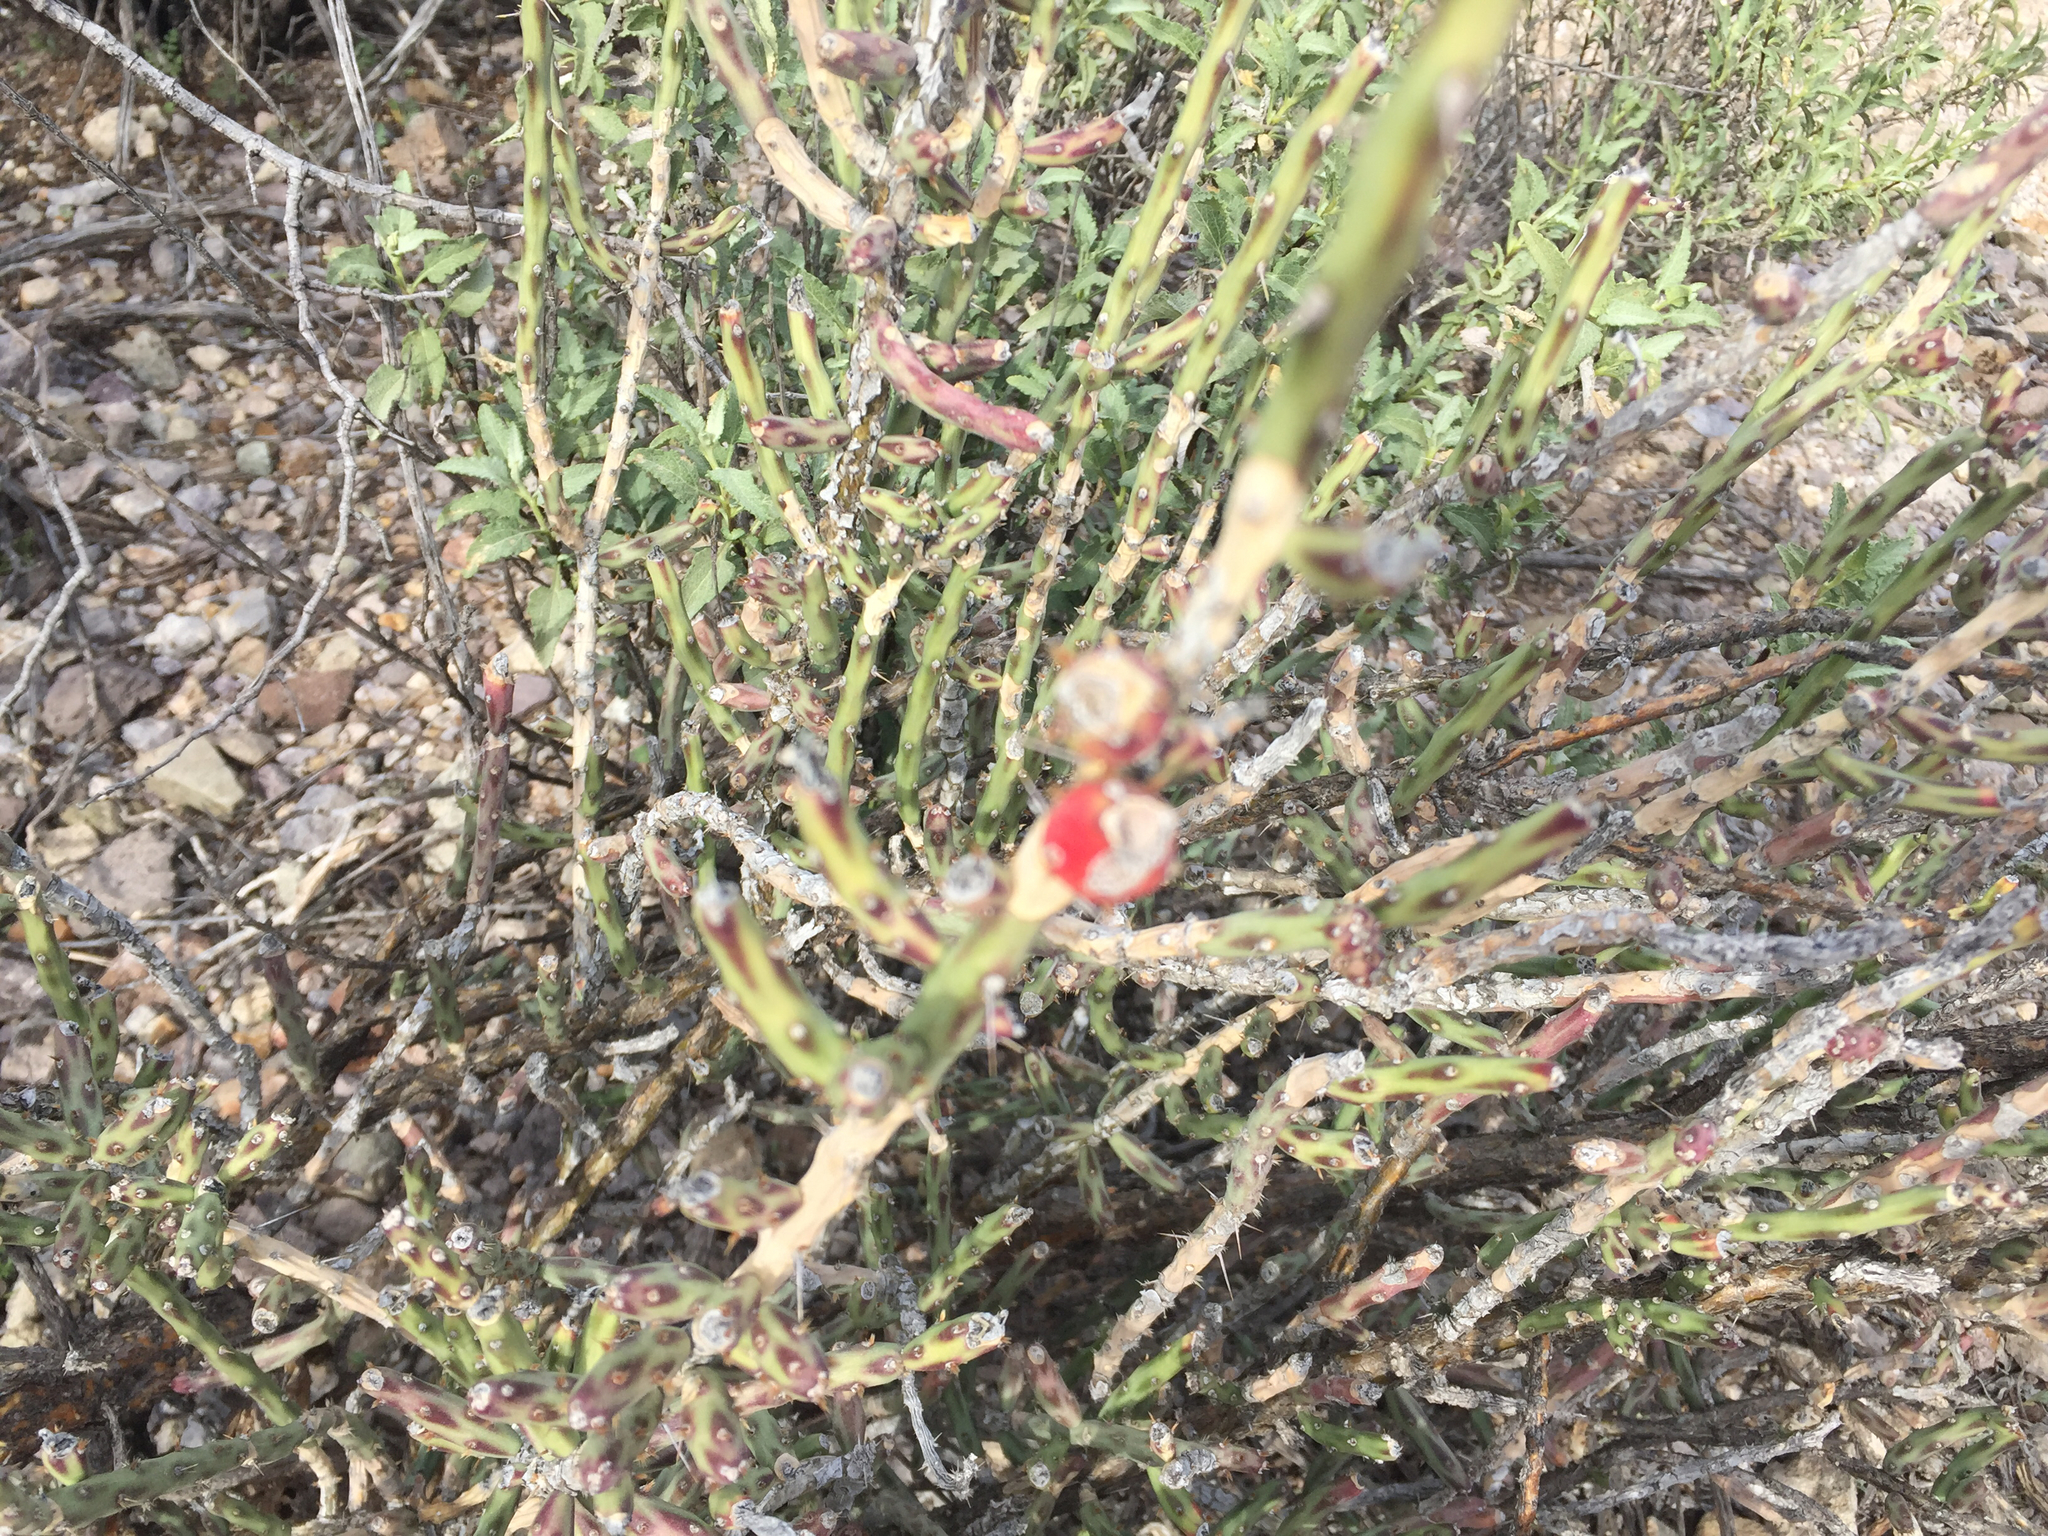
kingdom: Plantae
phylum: Tracheophyta
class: Magnoliopsida
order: Caryophyllales
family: Cactaceae
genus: Cylindropuntia
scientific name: Cylindropuntia leptocaulis
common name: Christmas cactus
